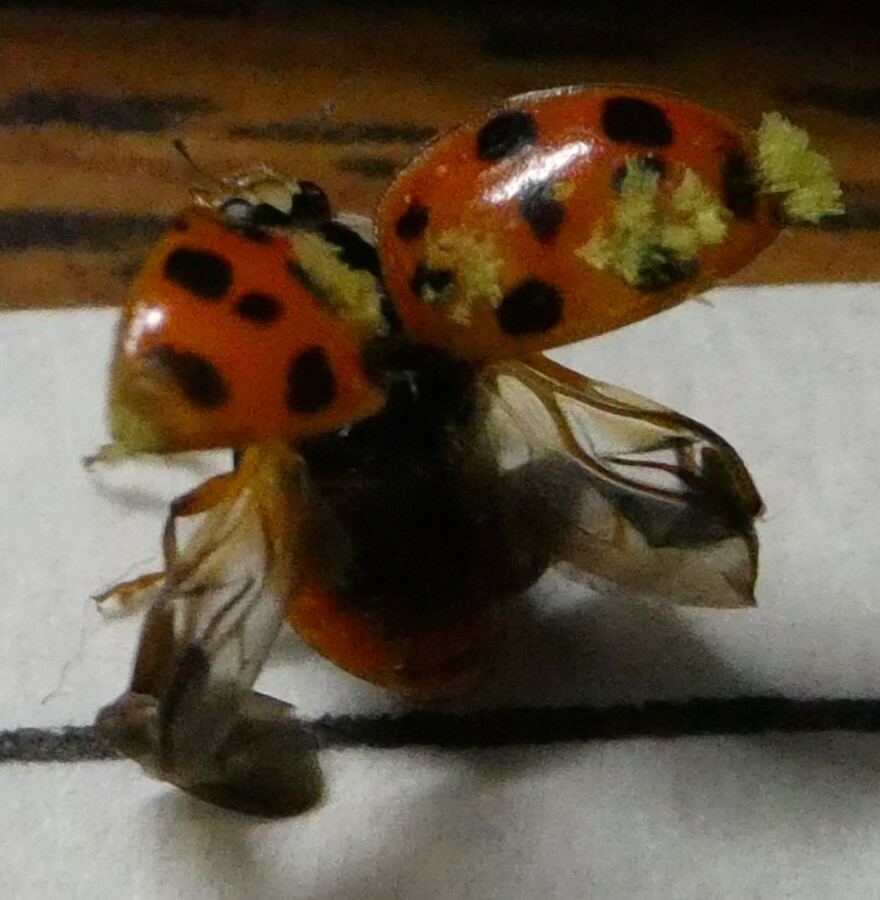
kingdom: Animalia
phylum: Arthropoda
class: Insecta
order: Coleoptera
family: Coccinellidae
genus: Harmonia
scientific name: Harmonia axyridis
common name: Harlequin ladybird
